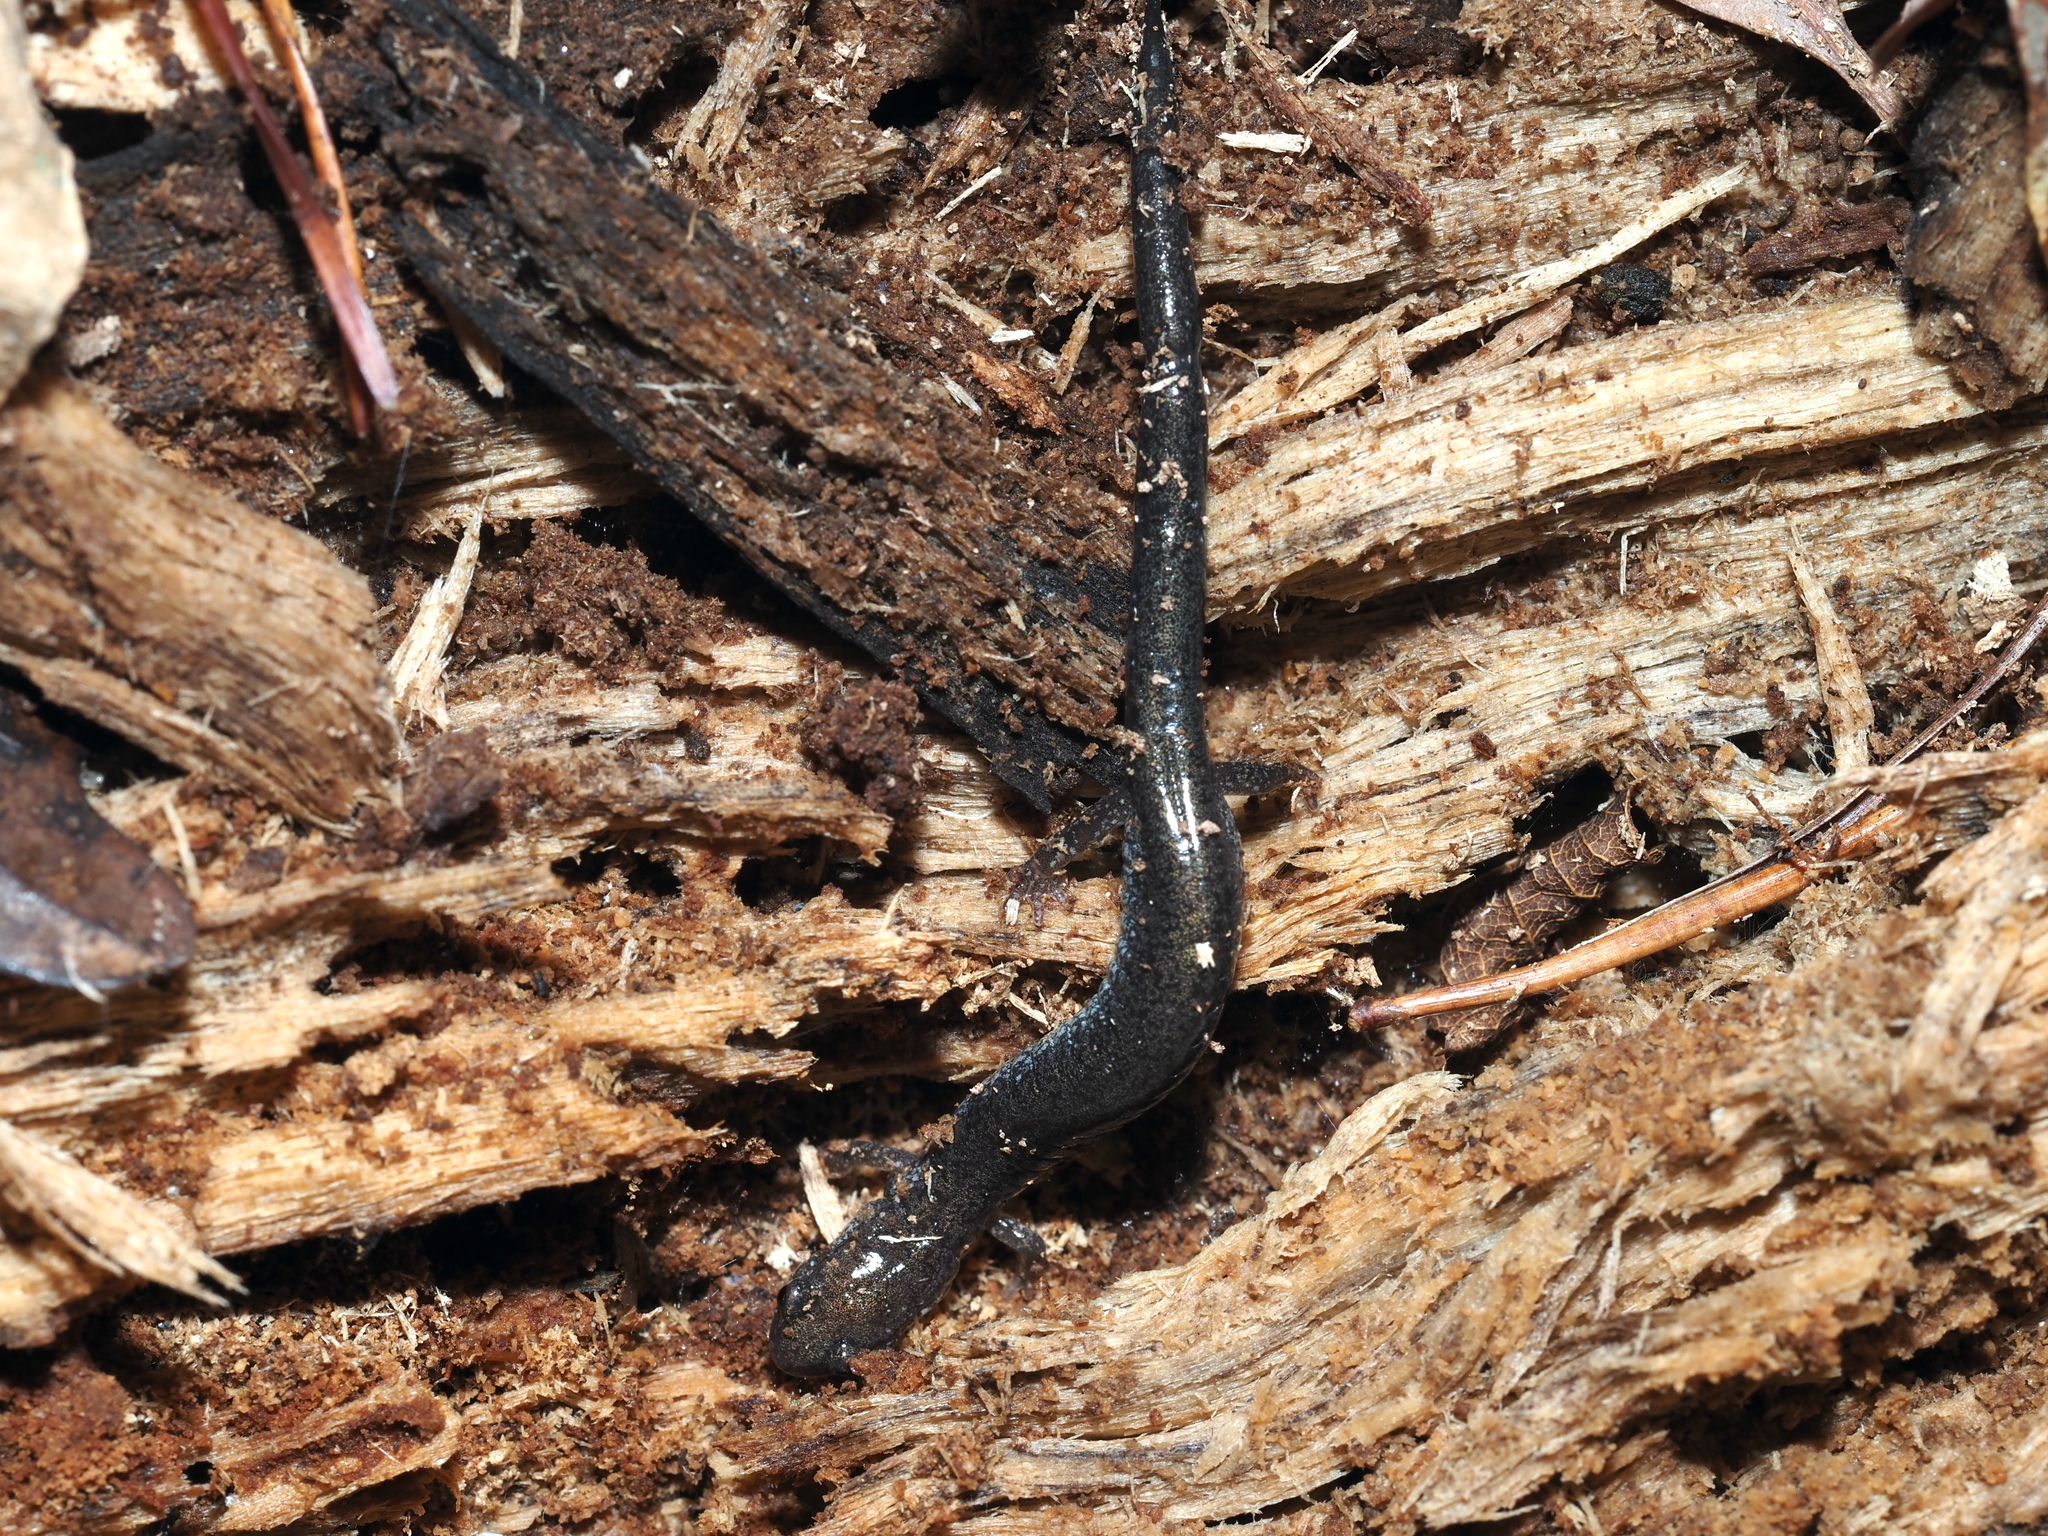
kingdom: Animalia
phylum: Chordata
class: Amphibia
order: Caudata
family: Plethodontidae
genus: Plethodon
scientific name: Plethodon cinereus
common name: Redback salamander
